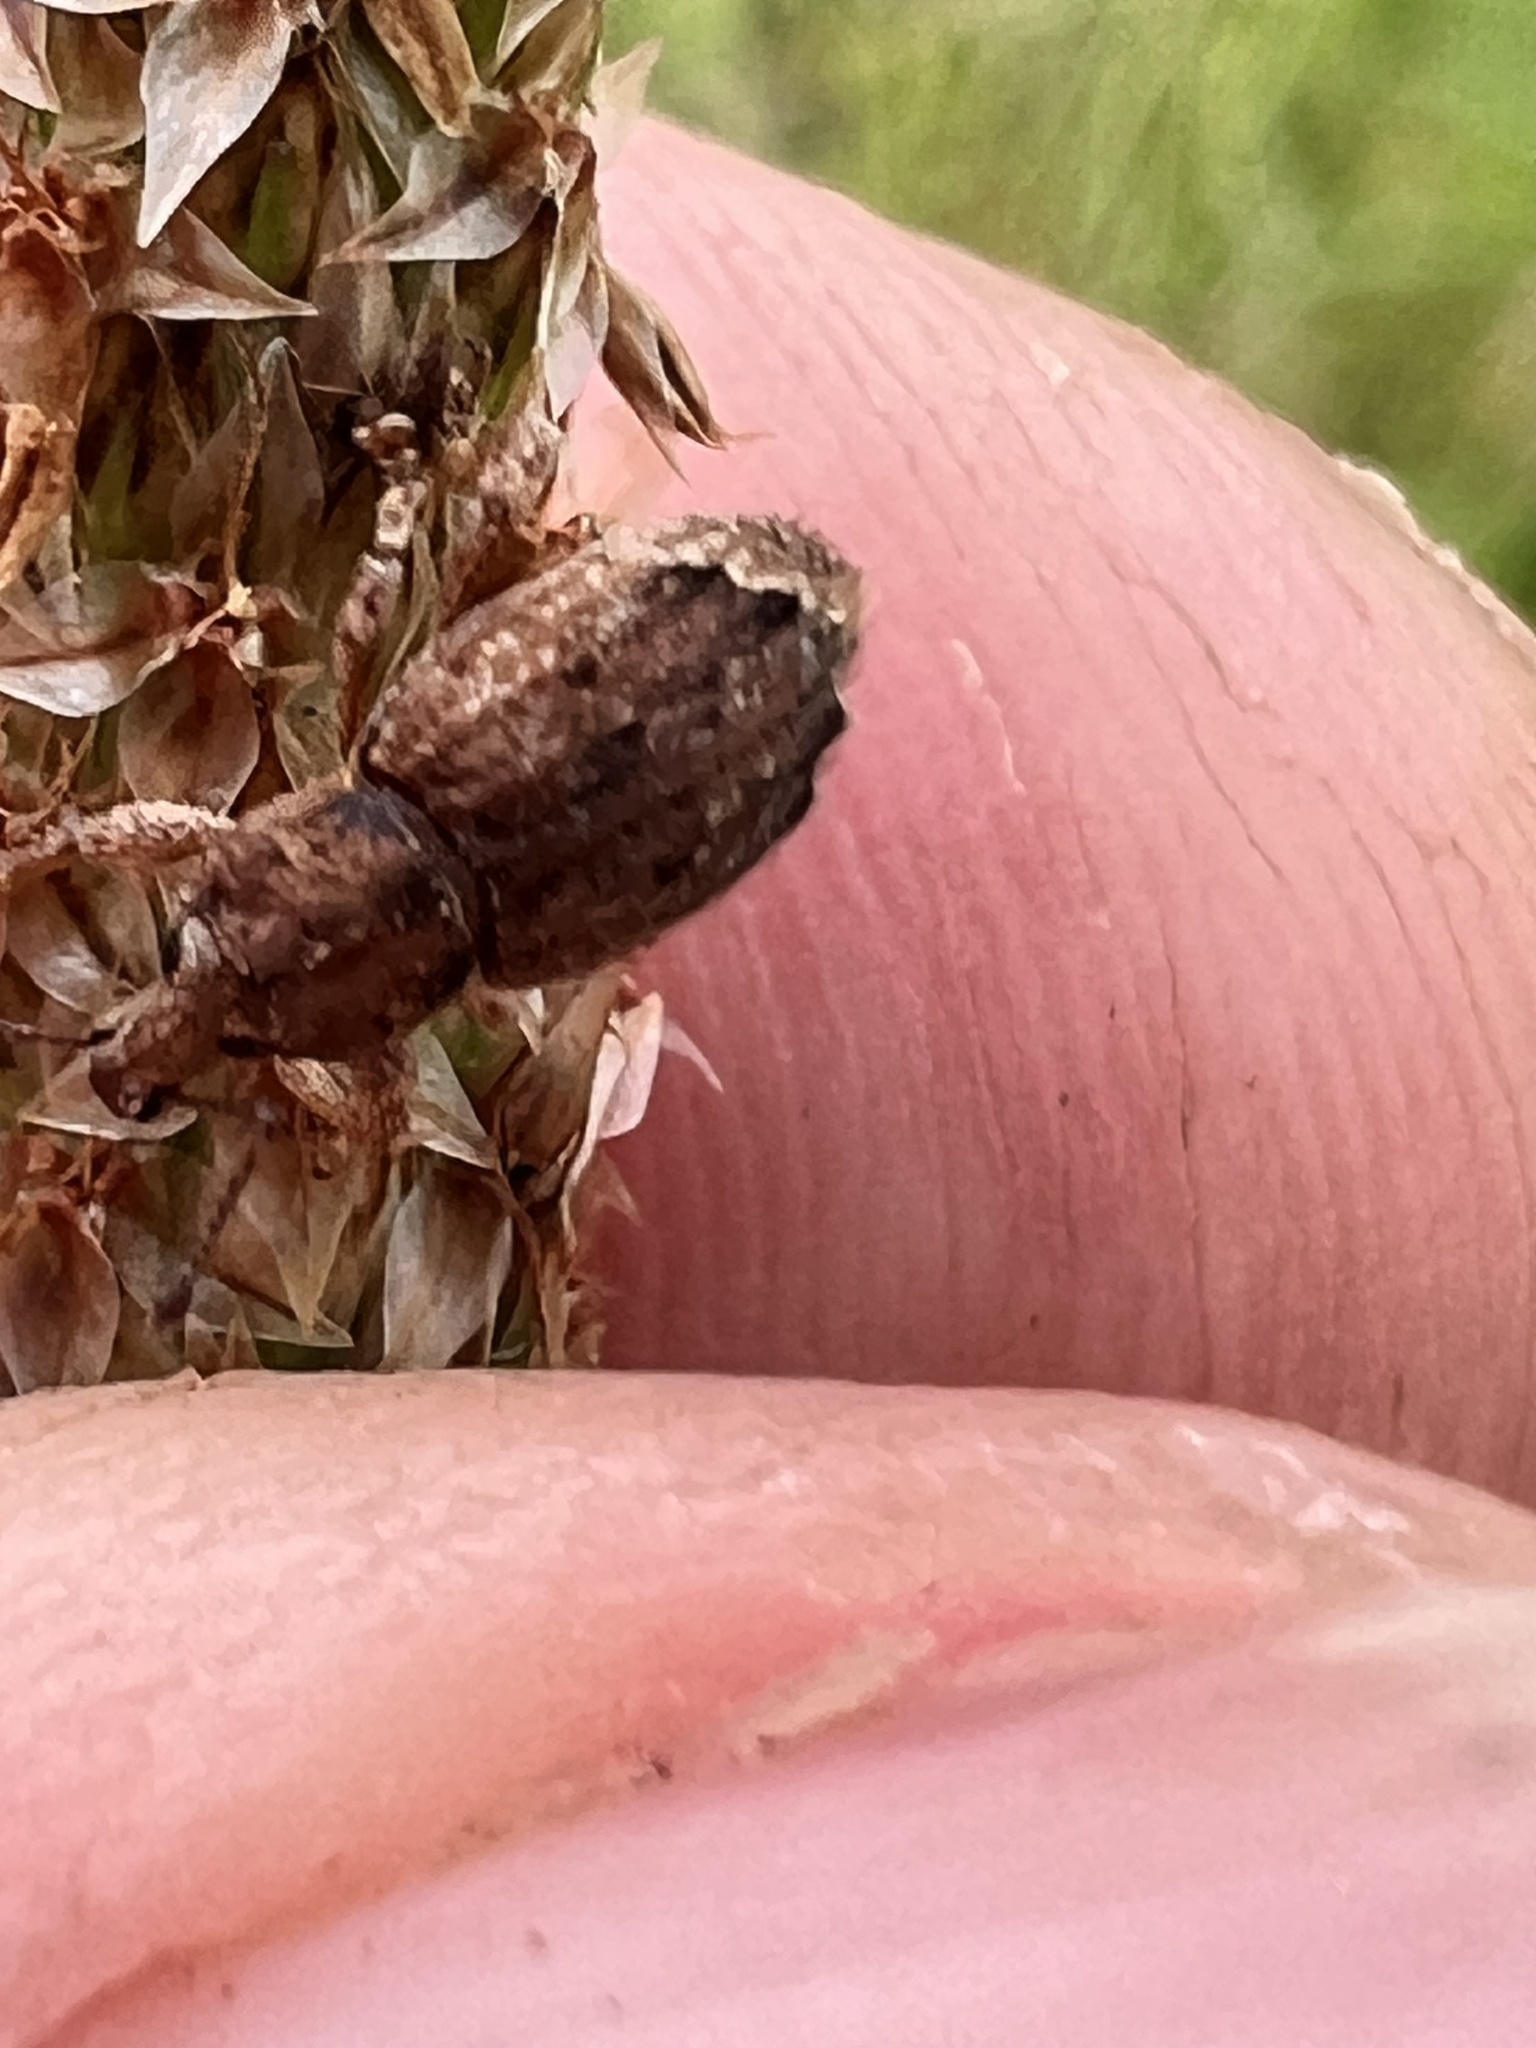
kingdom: Animalia
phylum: Arthropoda
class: Insecta
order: Coleoptera
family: Curculionidae
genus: Chalepistes
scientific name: Chalepistes compressus
